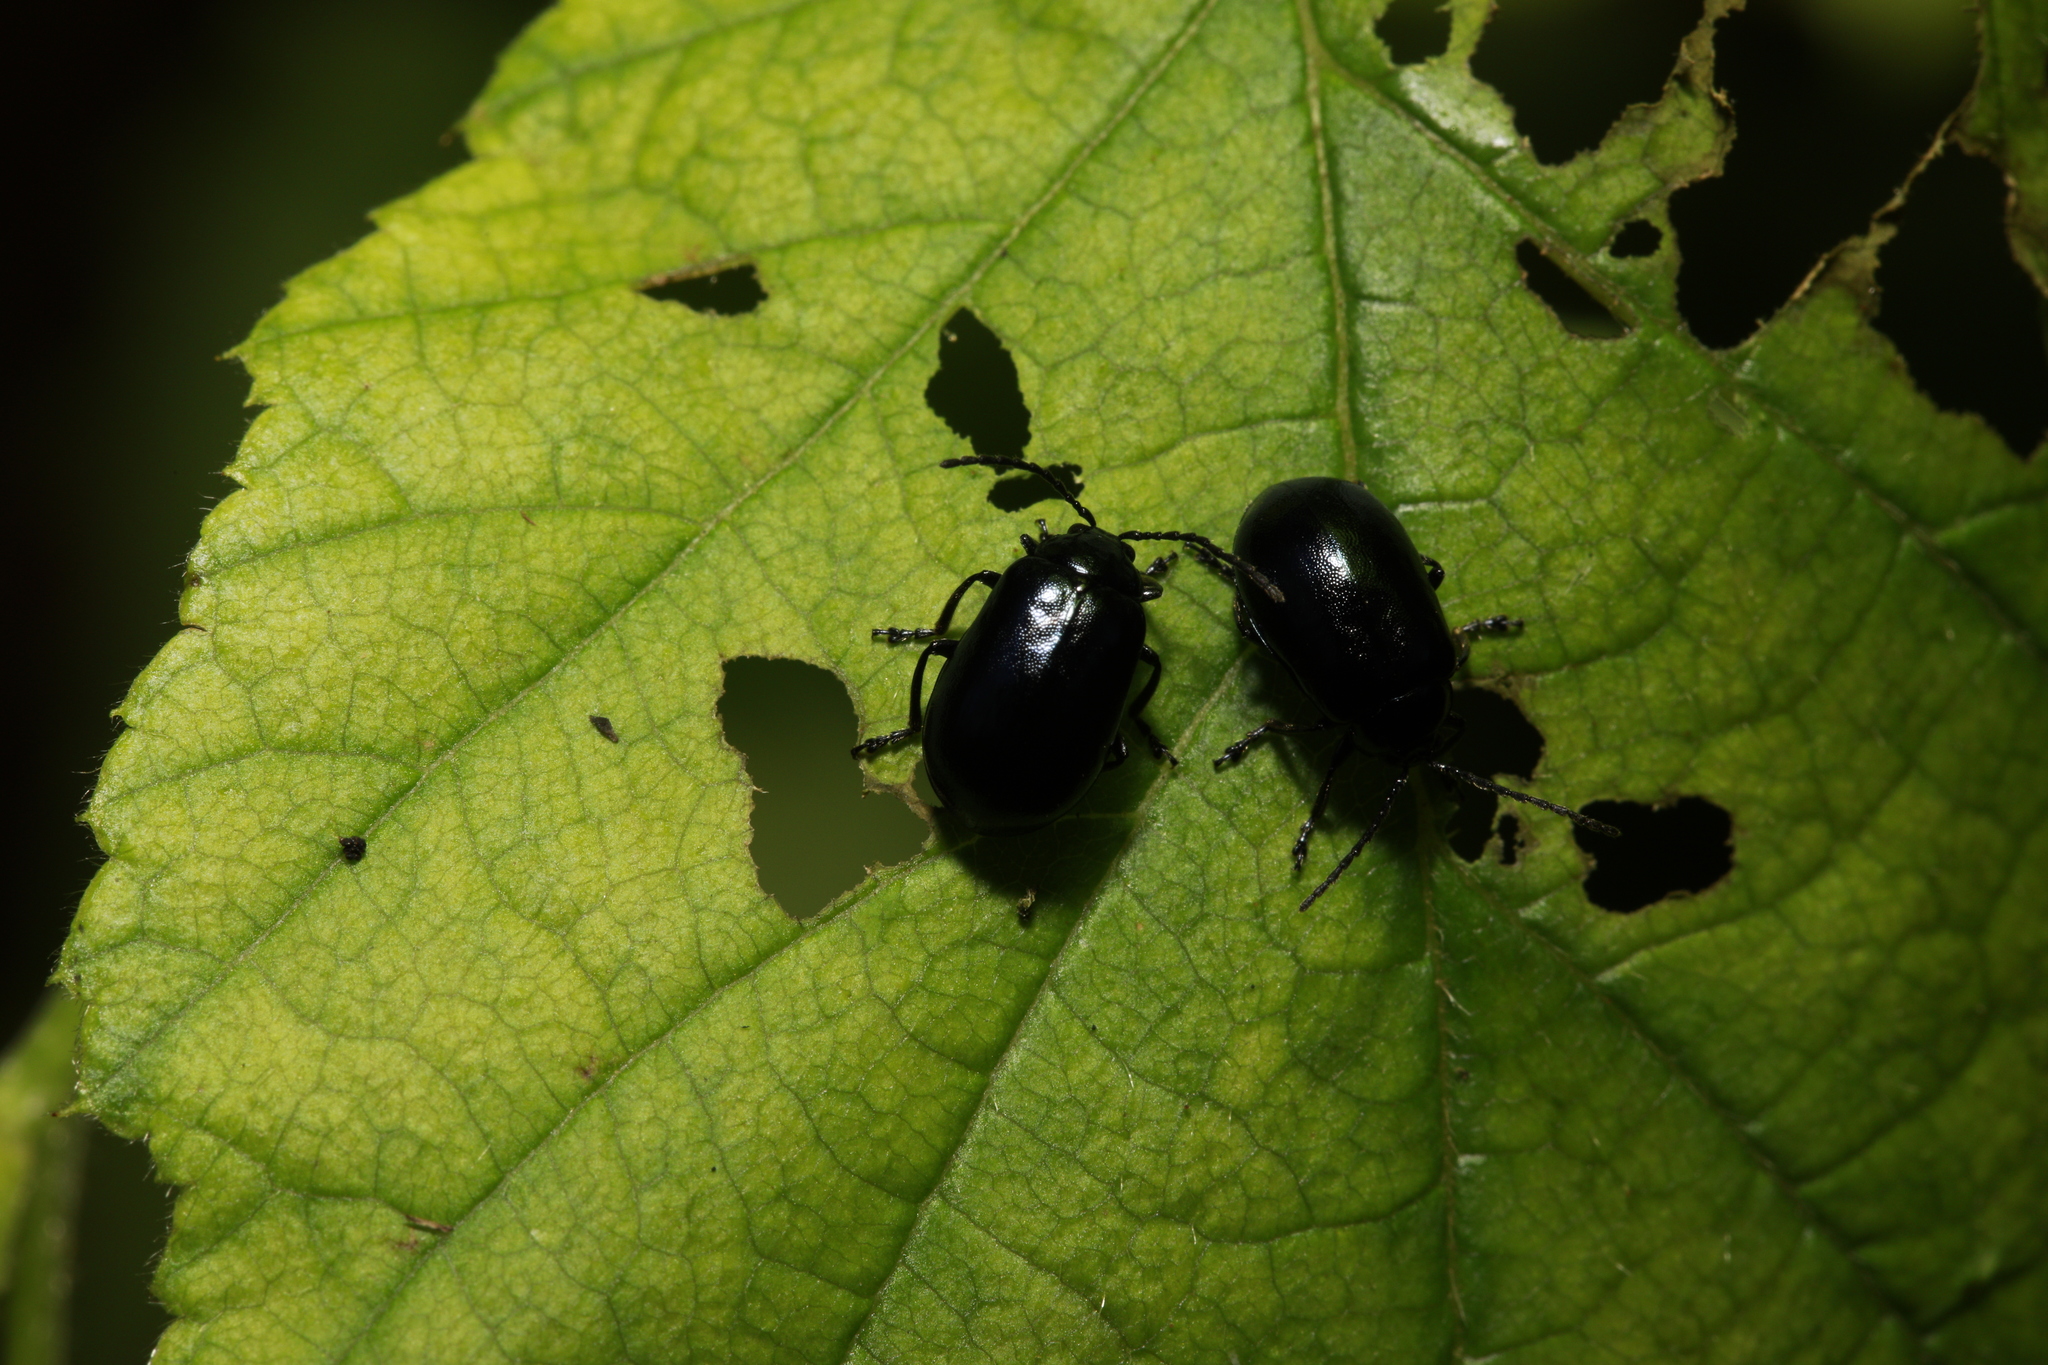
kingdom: Animalia
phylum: Arthropoda
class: Insecta
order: Coleoptera
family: Chrysomelidae
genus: Agelastica
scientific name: Agelastica alni
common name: Alder leaf beetle
